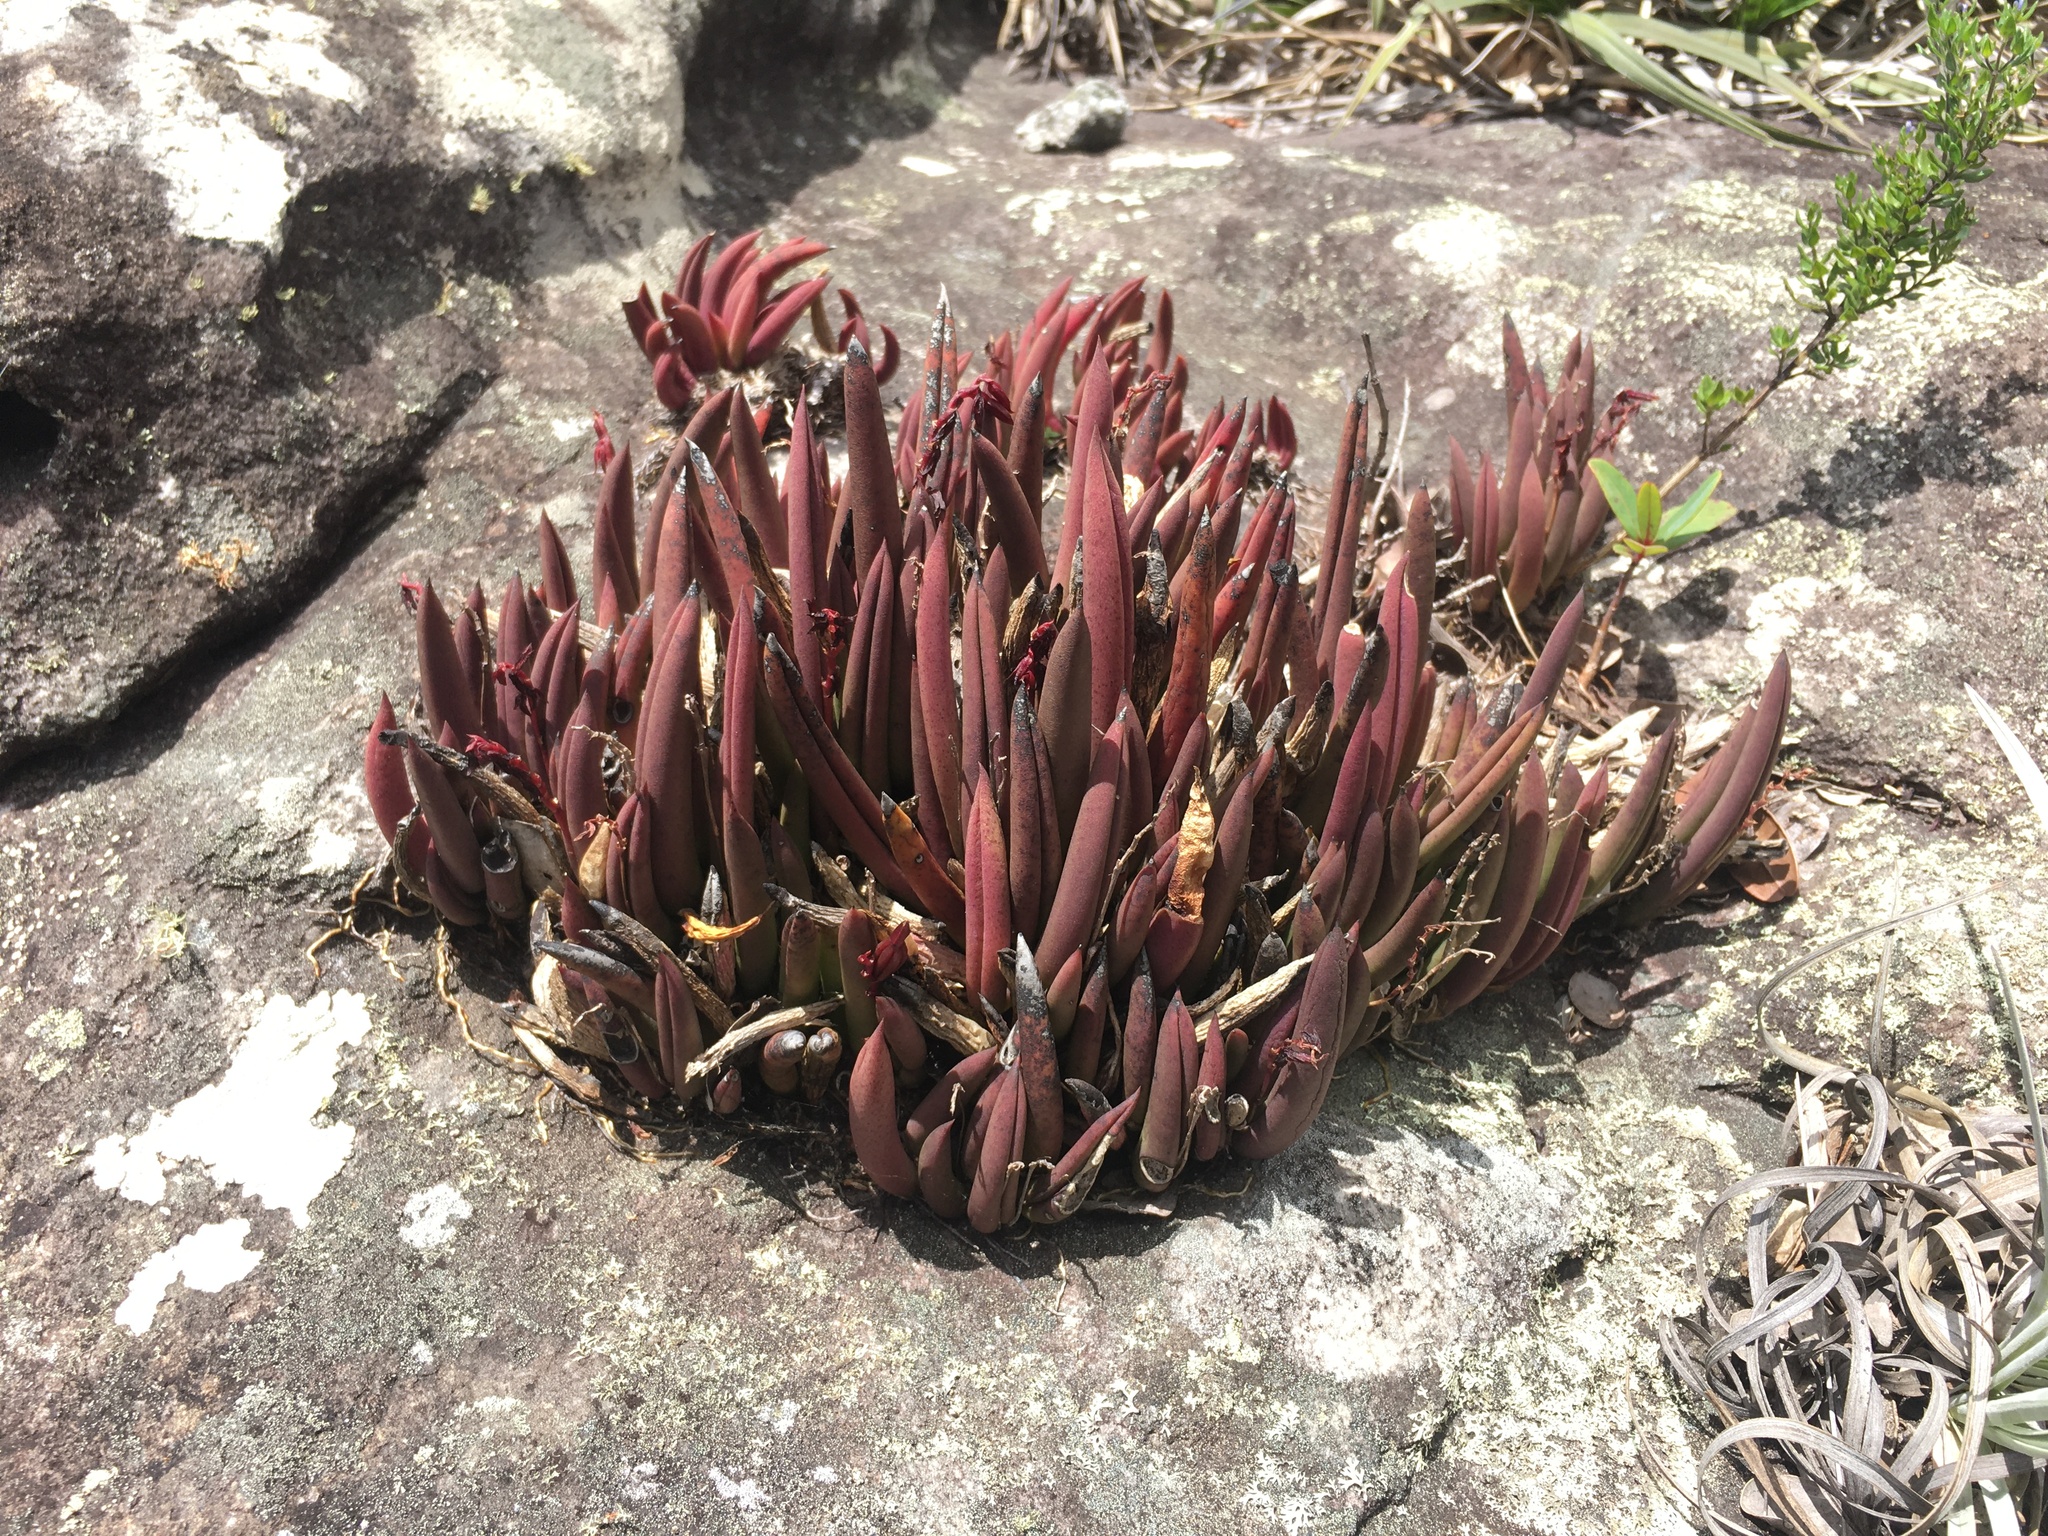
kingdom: Plantae
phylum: Tracheophyta
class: Liliopsida
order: Asparagales
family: Orchidaceae
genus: Acianthera
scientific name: Acianthera teres
